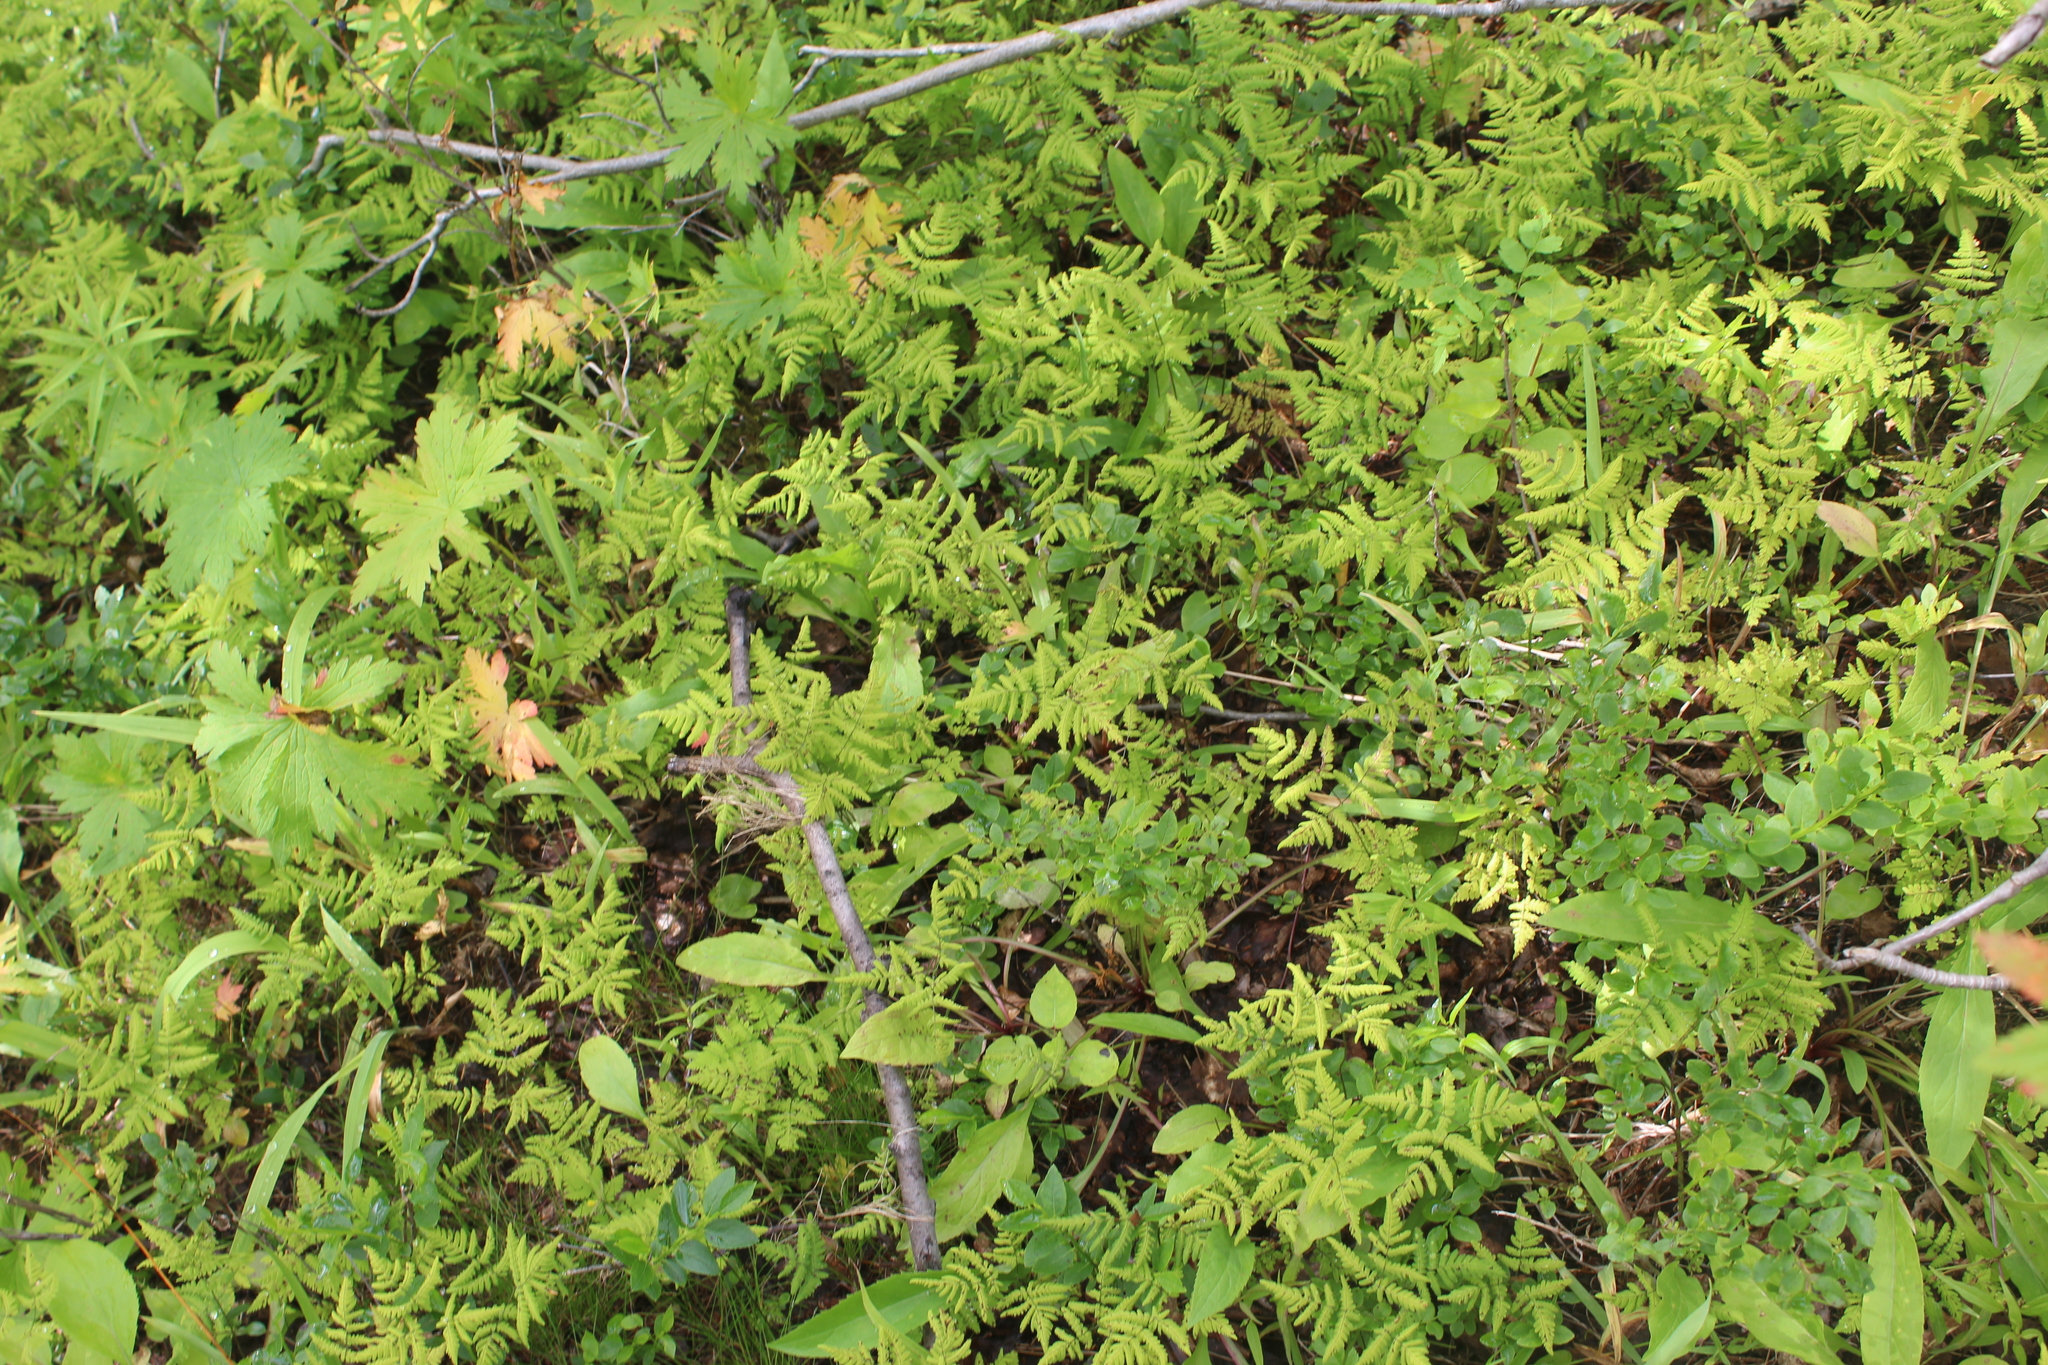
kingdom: Plantae
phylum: Tracheophyta
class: Polypodiopsida
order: Polypodiales
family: Cystopteridaceae
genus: Gymnocarpium
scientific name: Gymnocarpium dryopteris
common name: Oak fern
